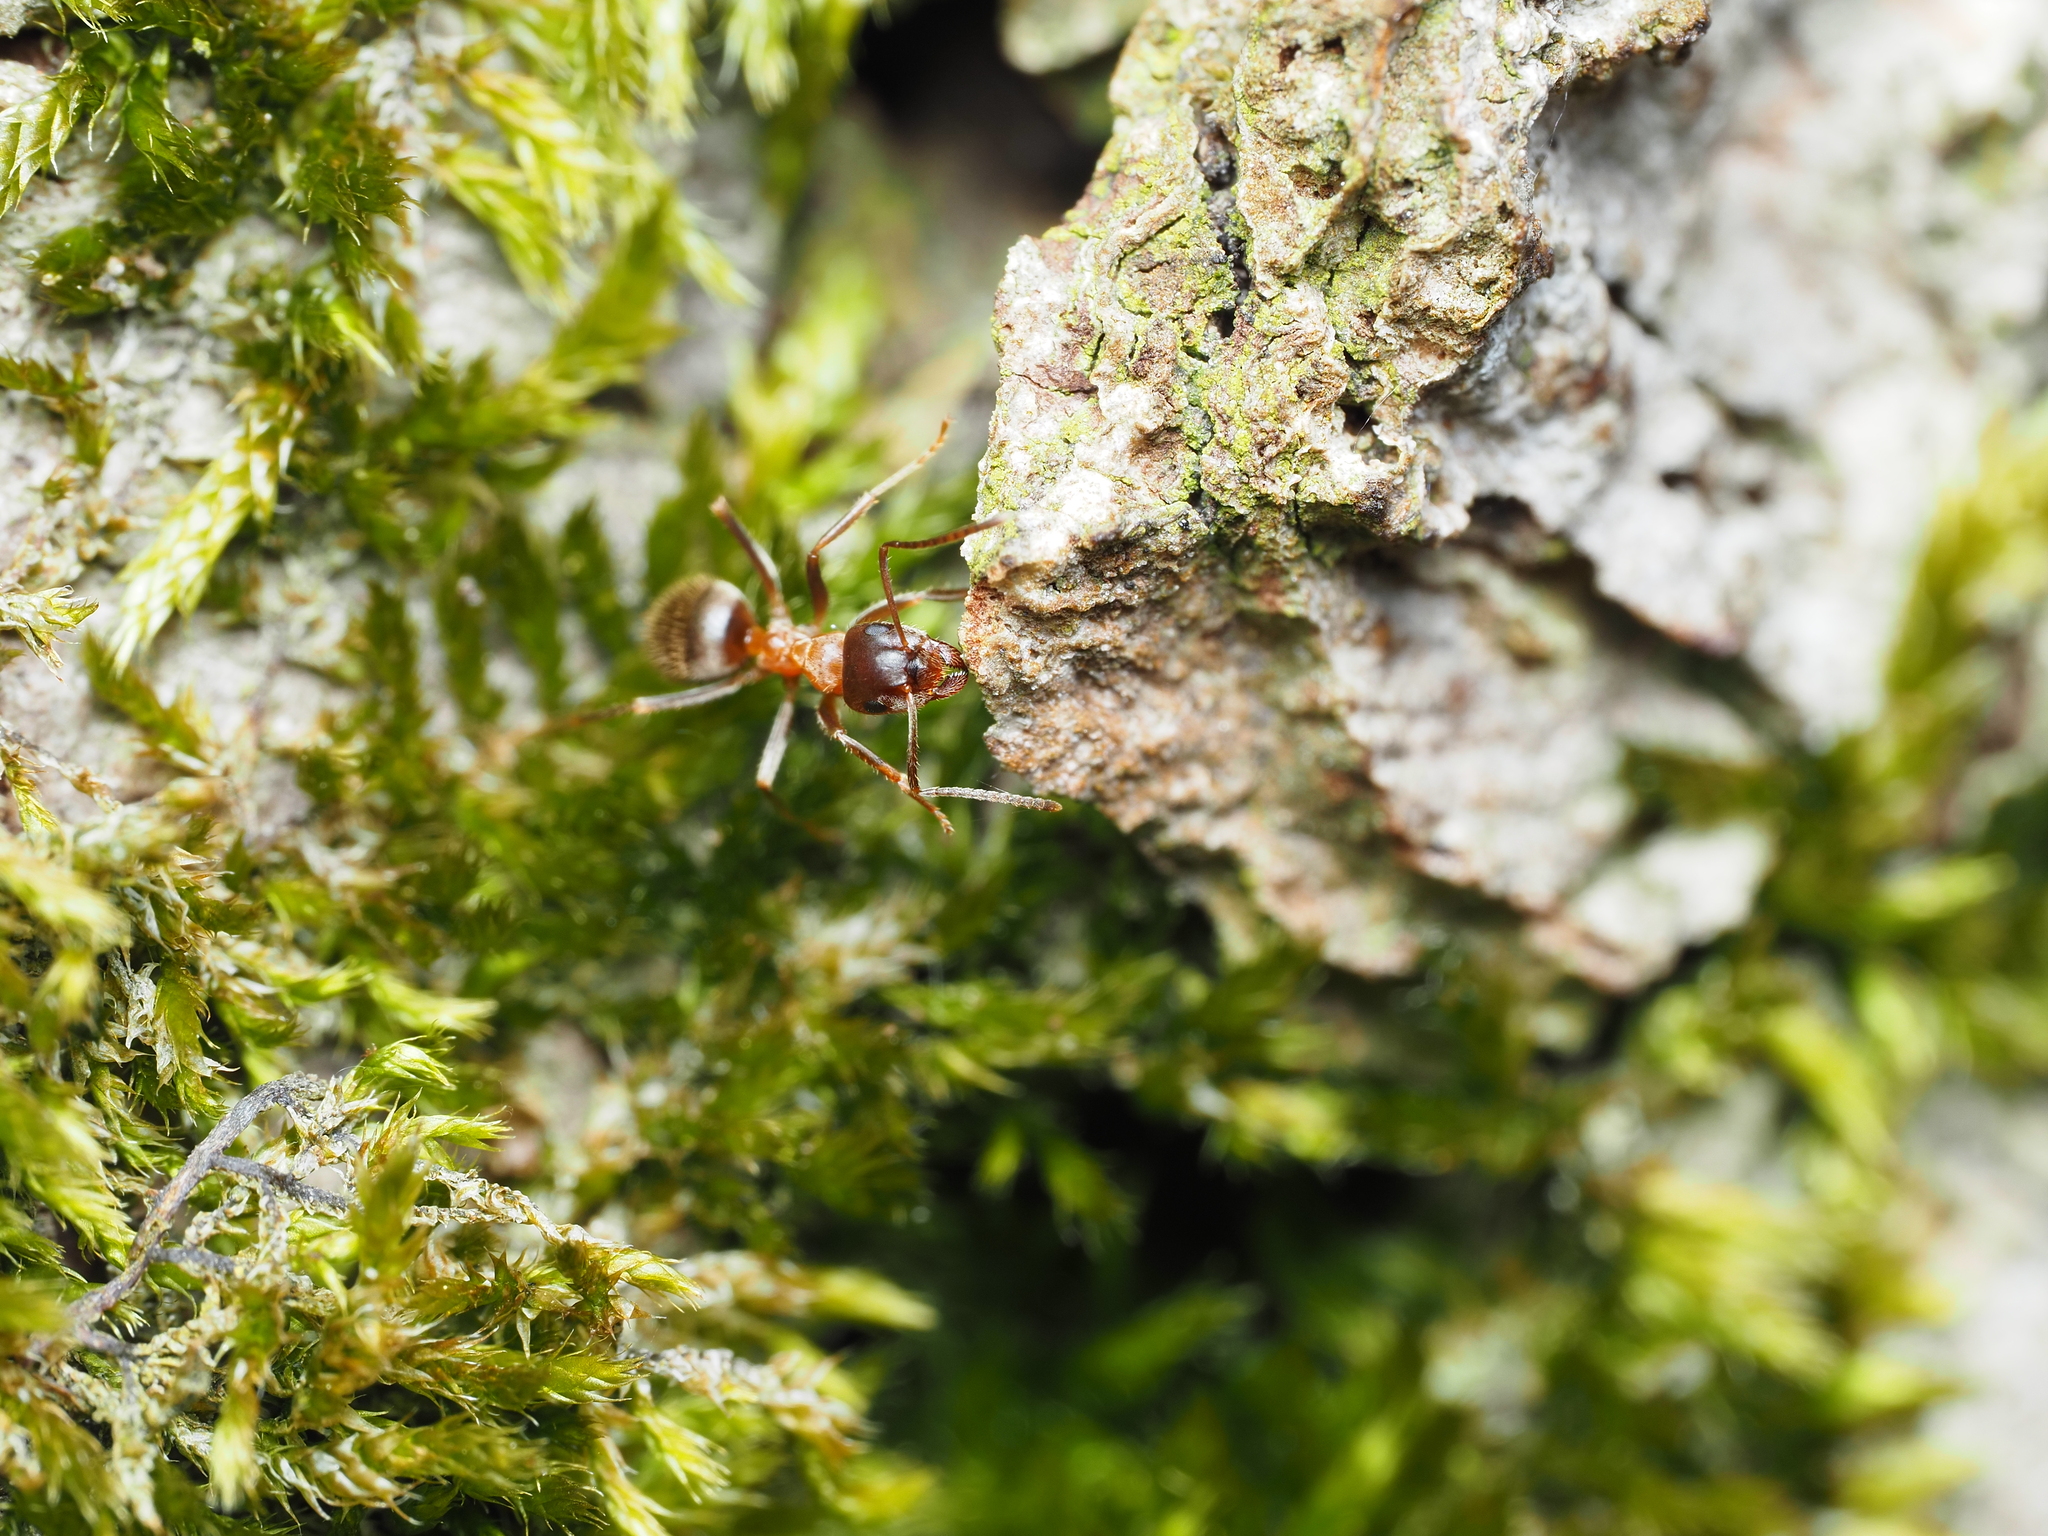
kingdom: Animalia
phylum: Arthropoda
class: Insecta
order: Hymenoptera
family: Formicidae
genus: Lasius
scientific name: Lasius emarginatus
